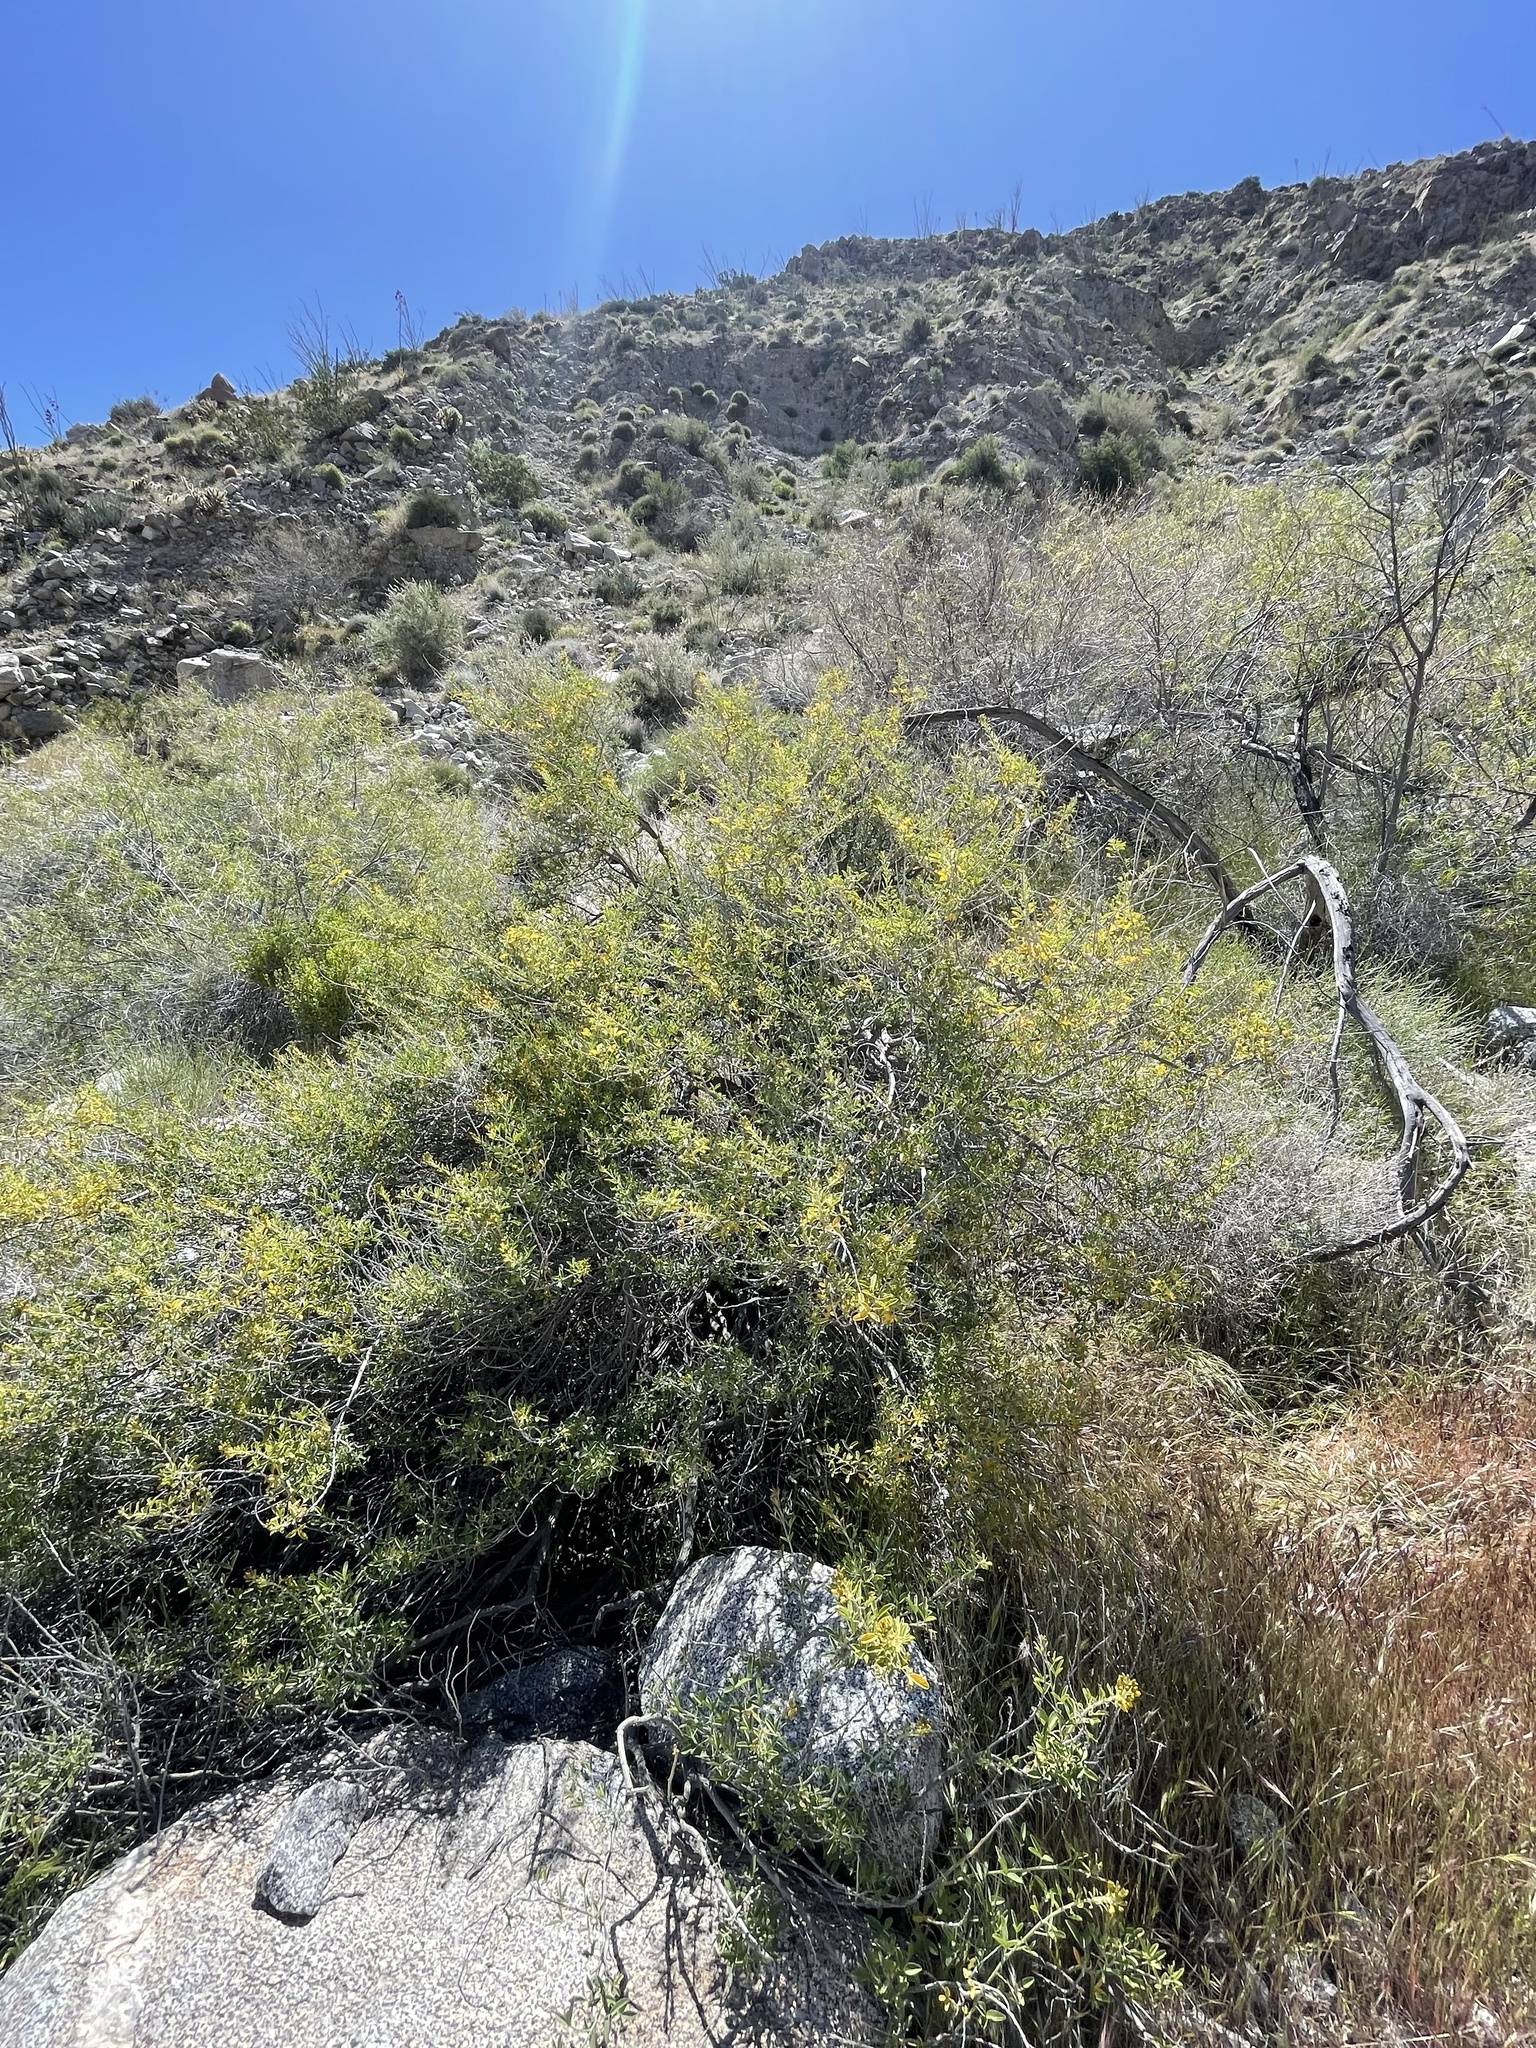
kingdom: Plantae
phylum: Tracheophyta
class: Magnoliopsida
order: Brassicales
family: Cleomaceae
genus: Cleomella
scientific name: Cleomella arborea
